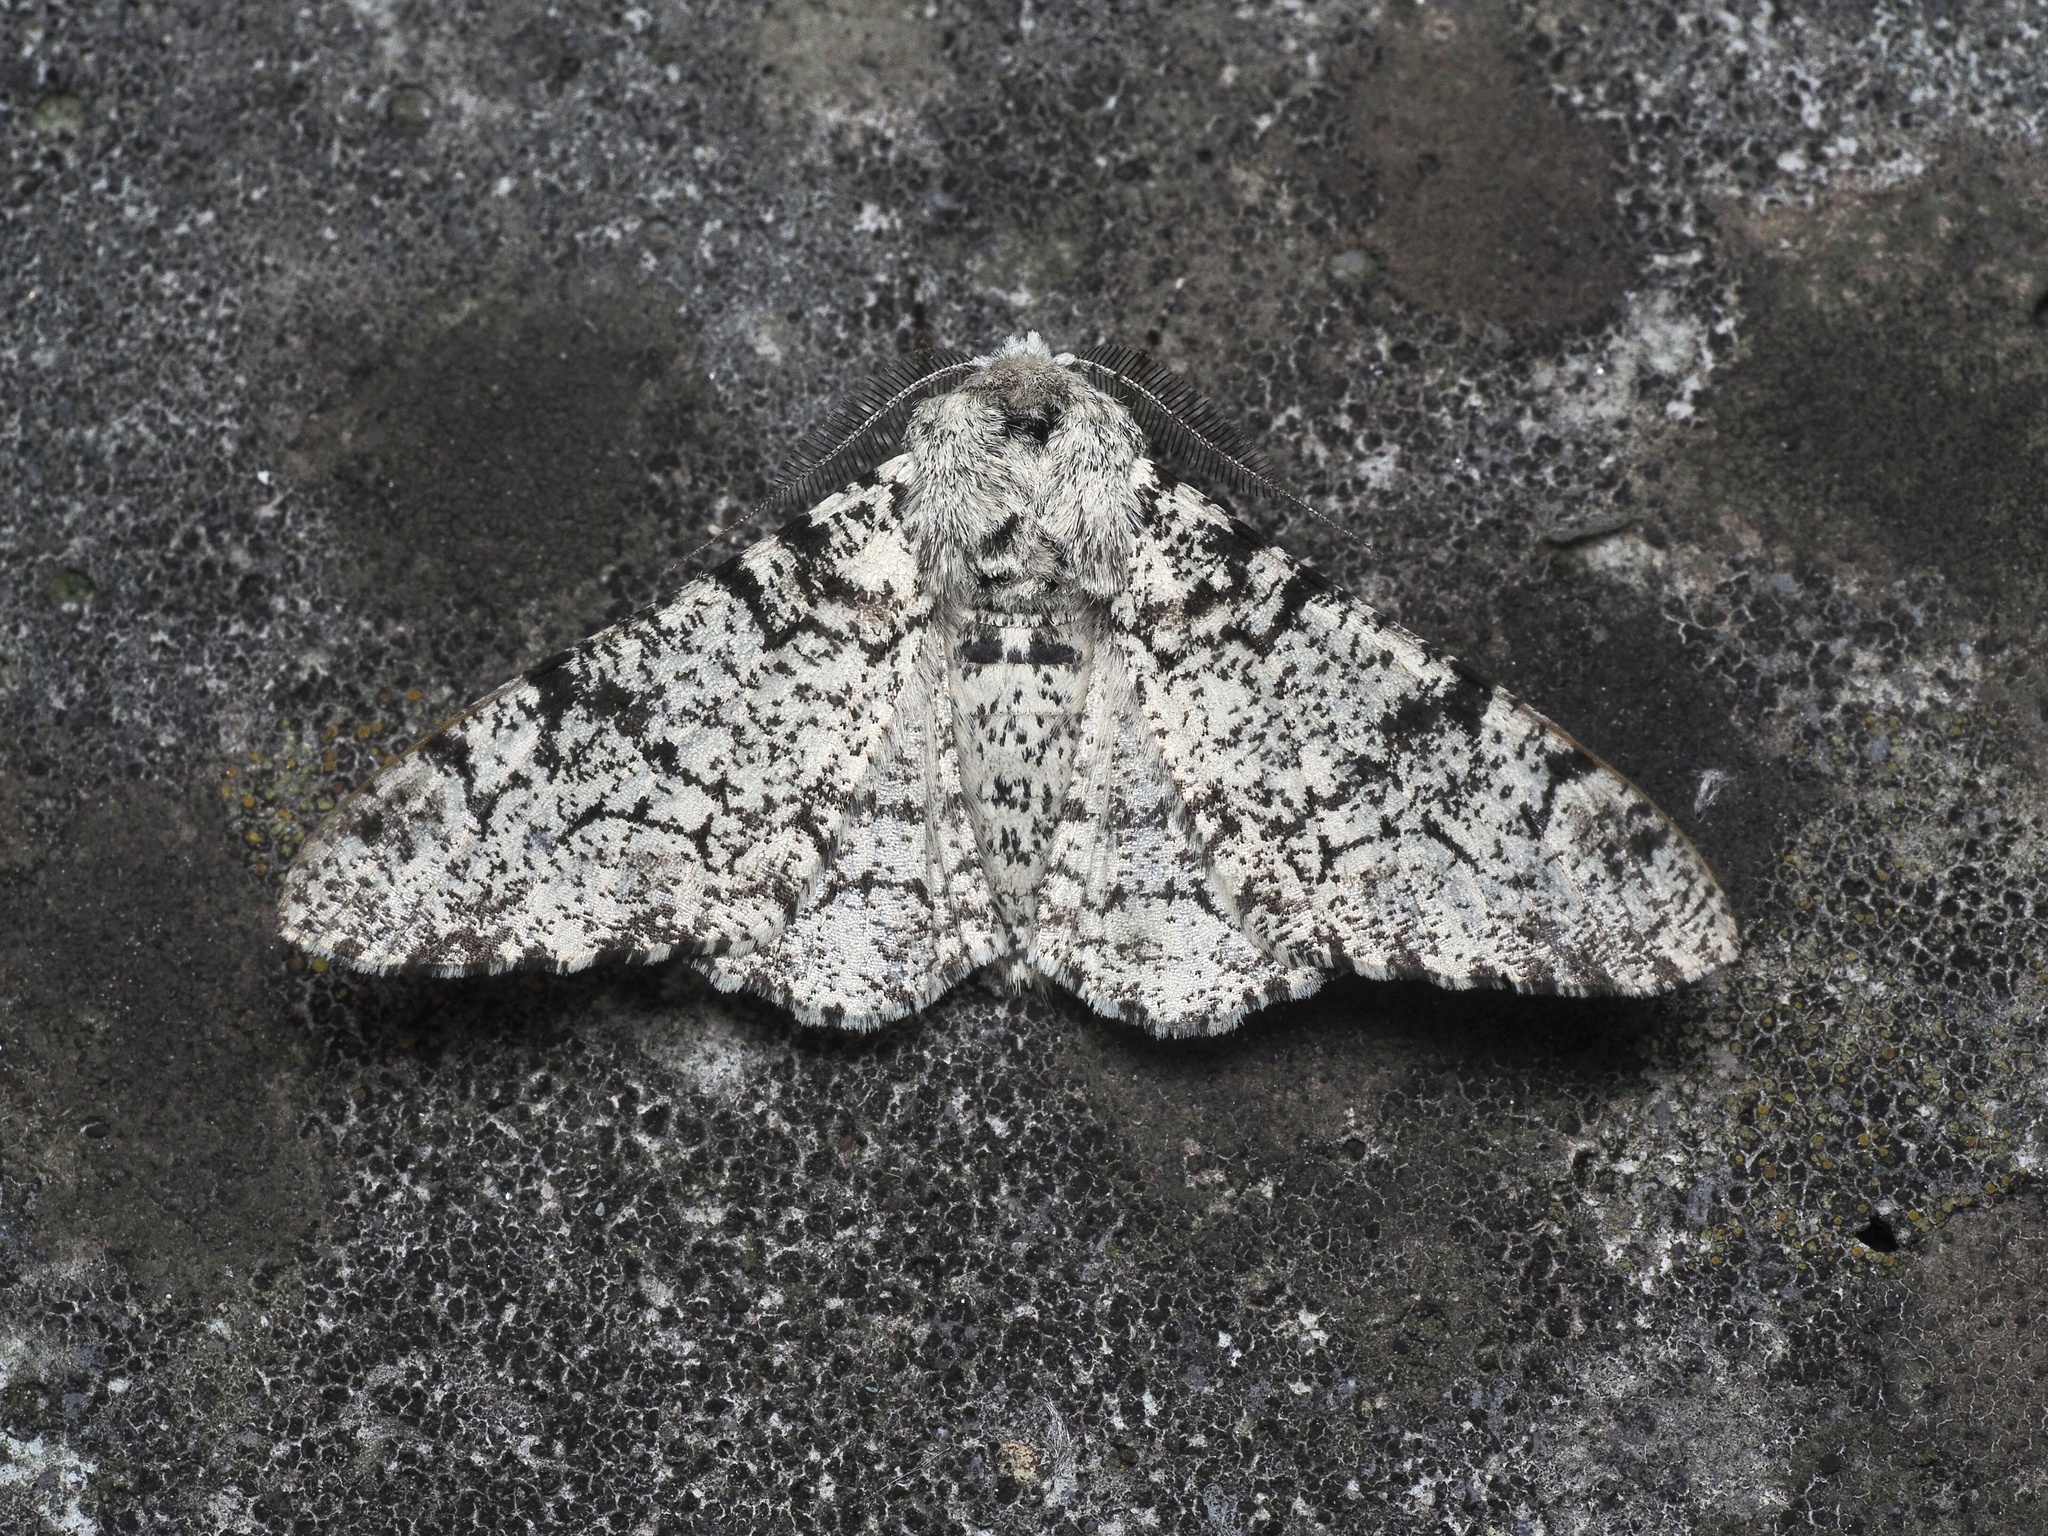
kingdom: Animalia
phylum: Arthropoda
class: Insecta
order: Lepidoptera
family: Geometridae
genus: Biston
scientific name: Biston betularia
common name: Peppered moth
